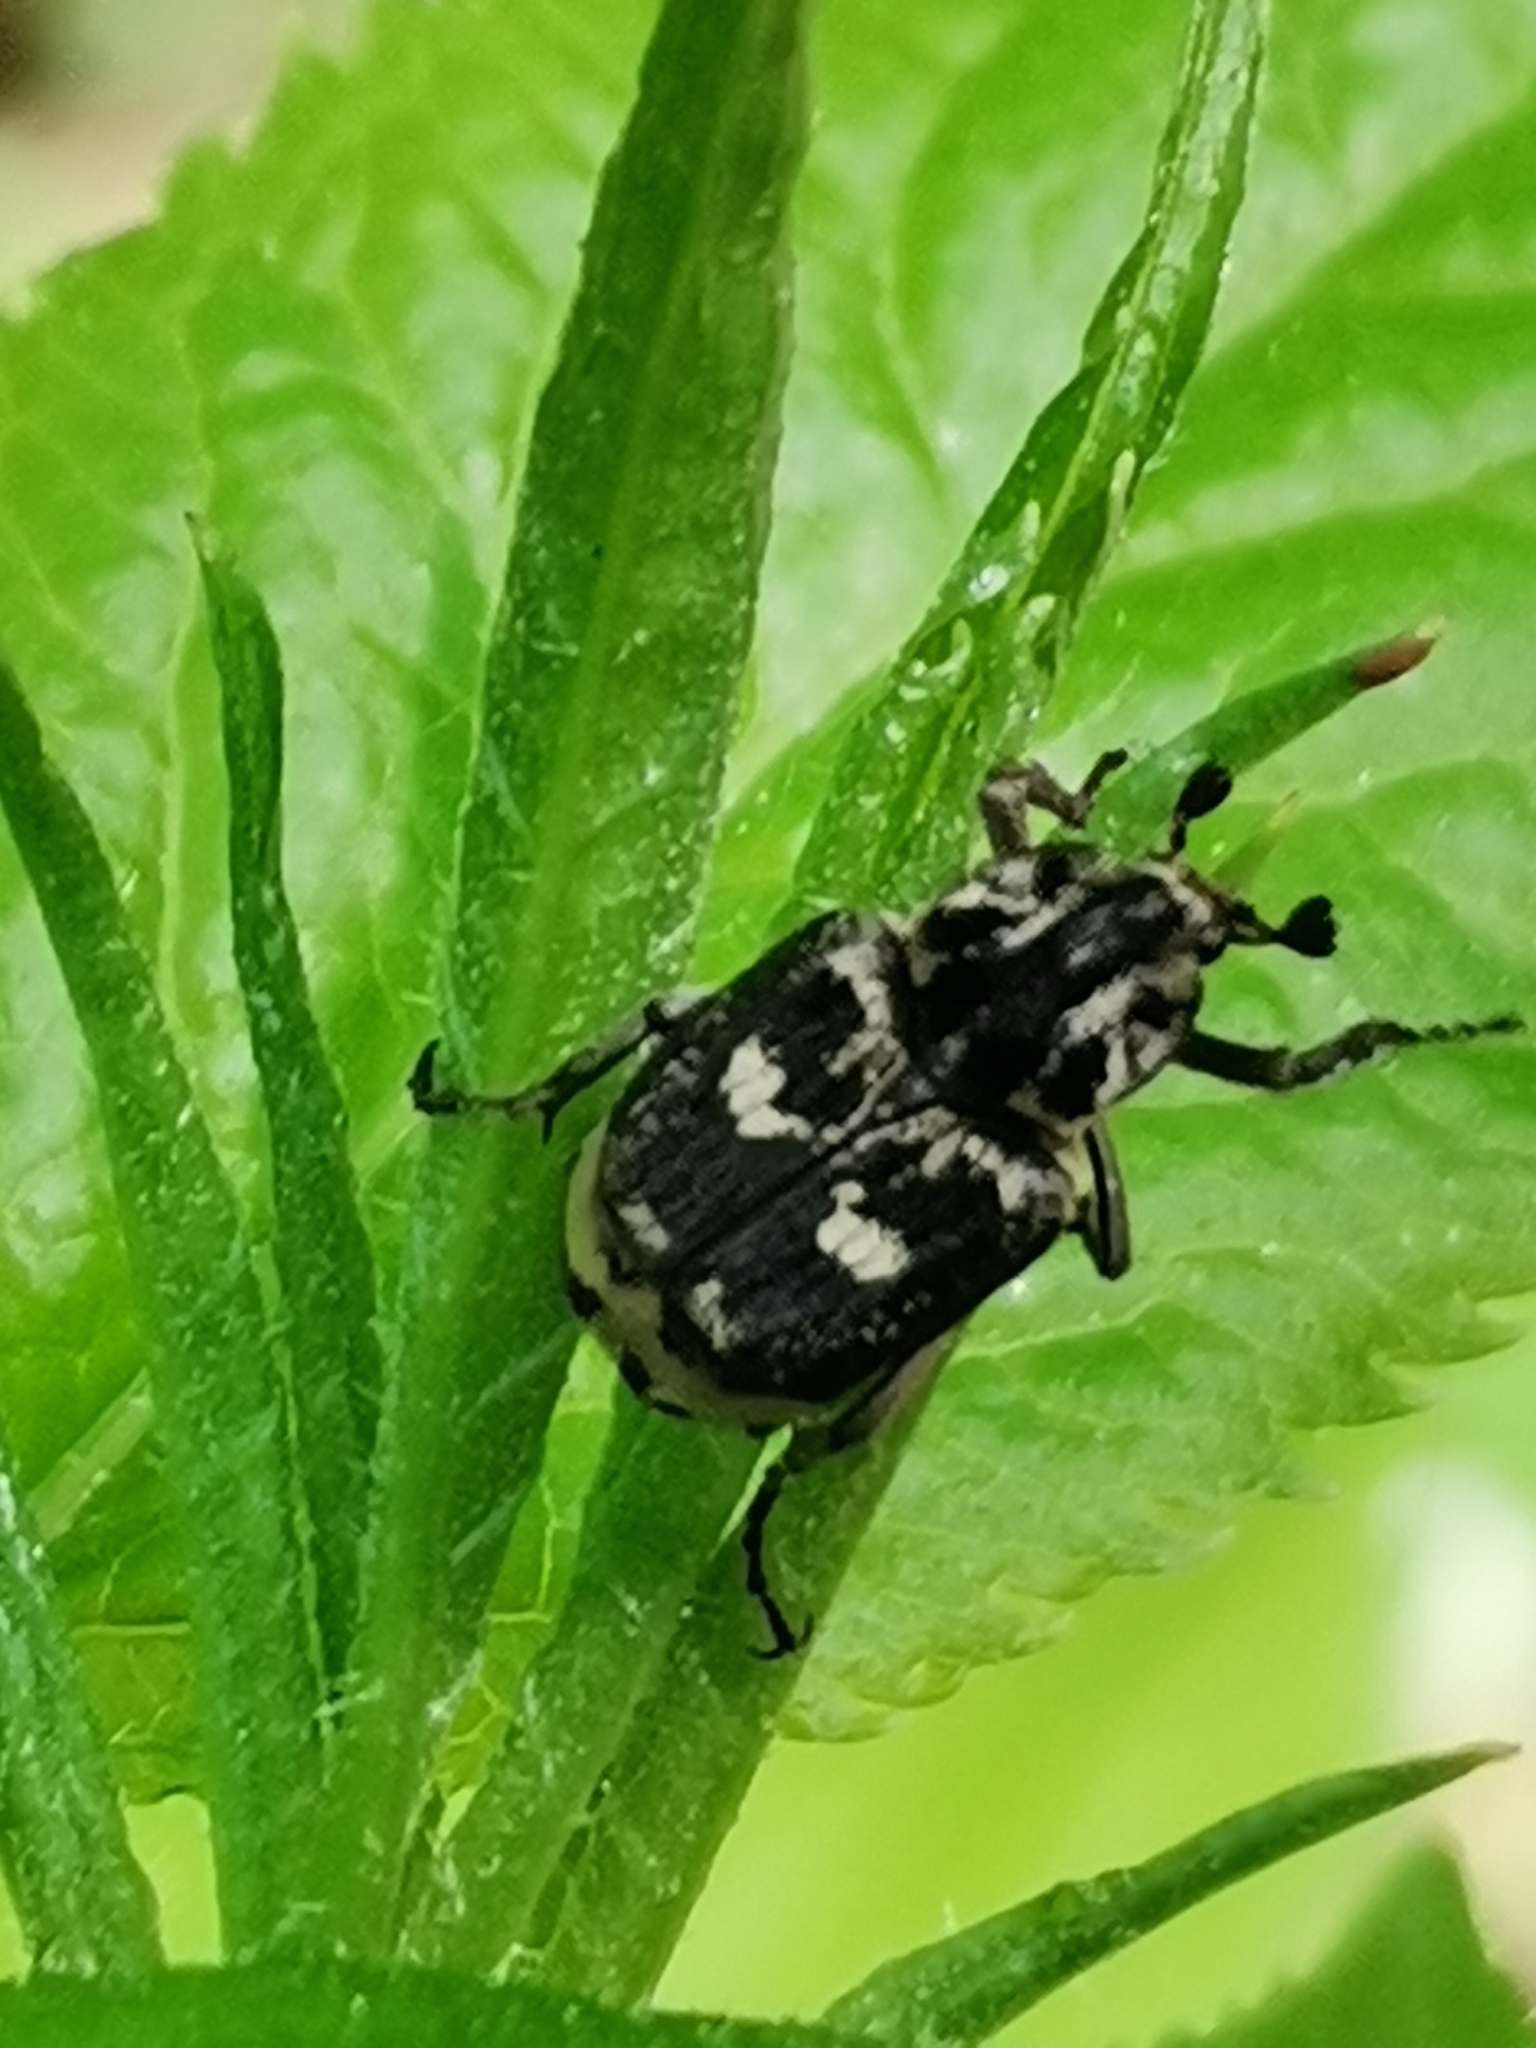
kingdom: Animalia
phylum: Arthropoda
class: Insecta
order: Coleoptera
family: Scarabaeidae
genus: Valgus
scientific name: Valgus hemipterus
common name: Bug flower chafer
